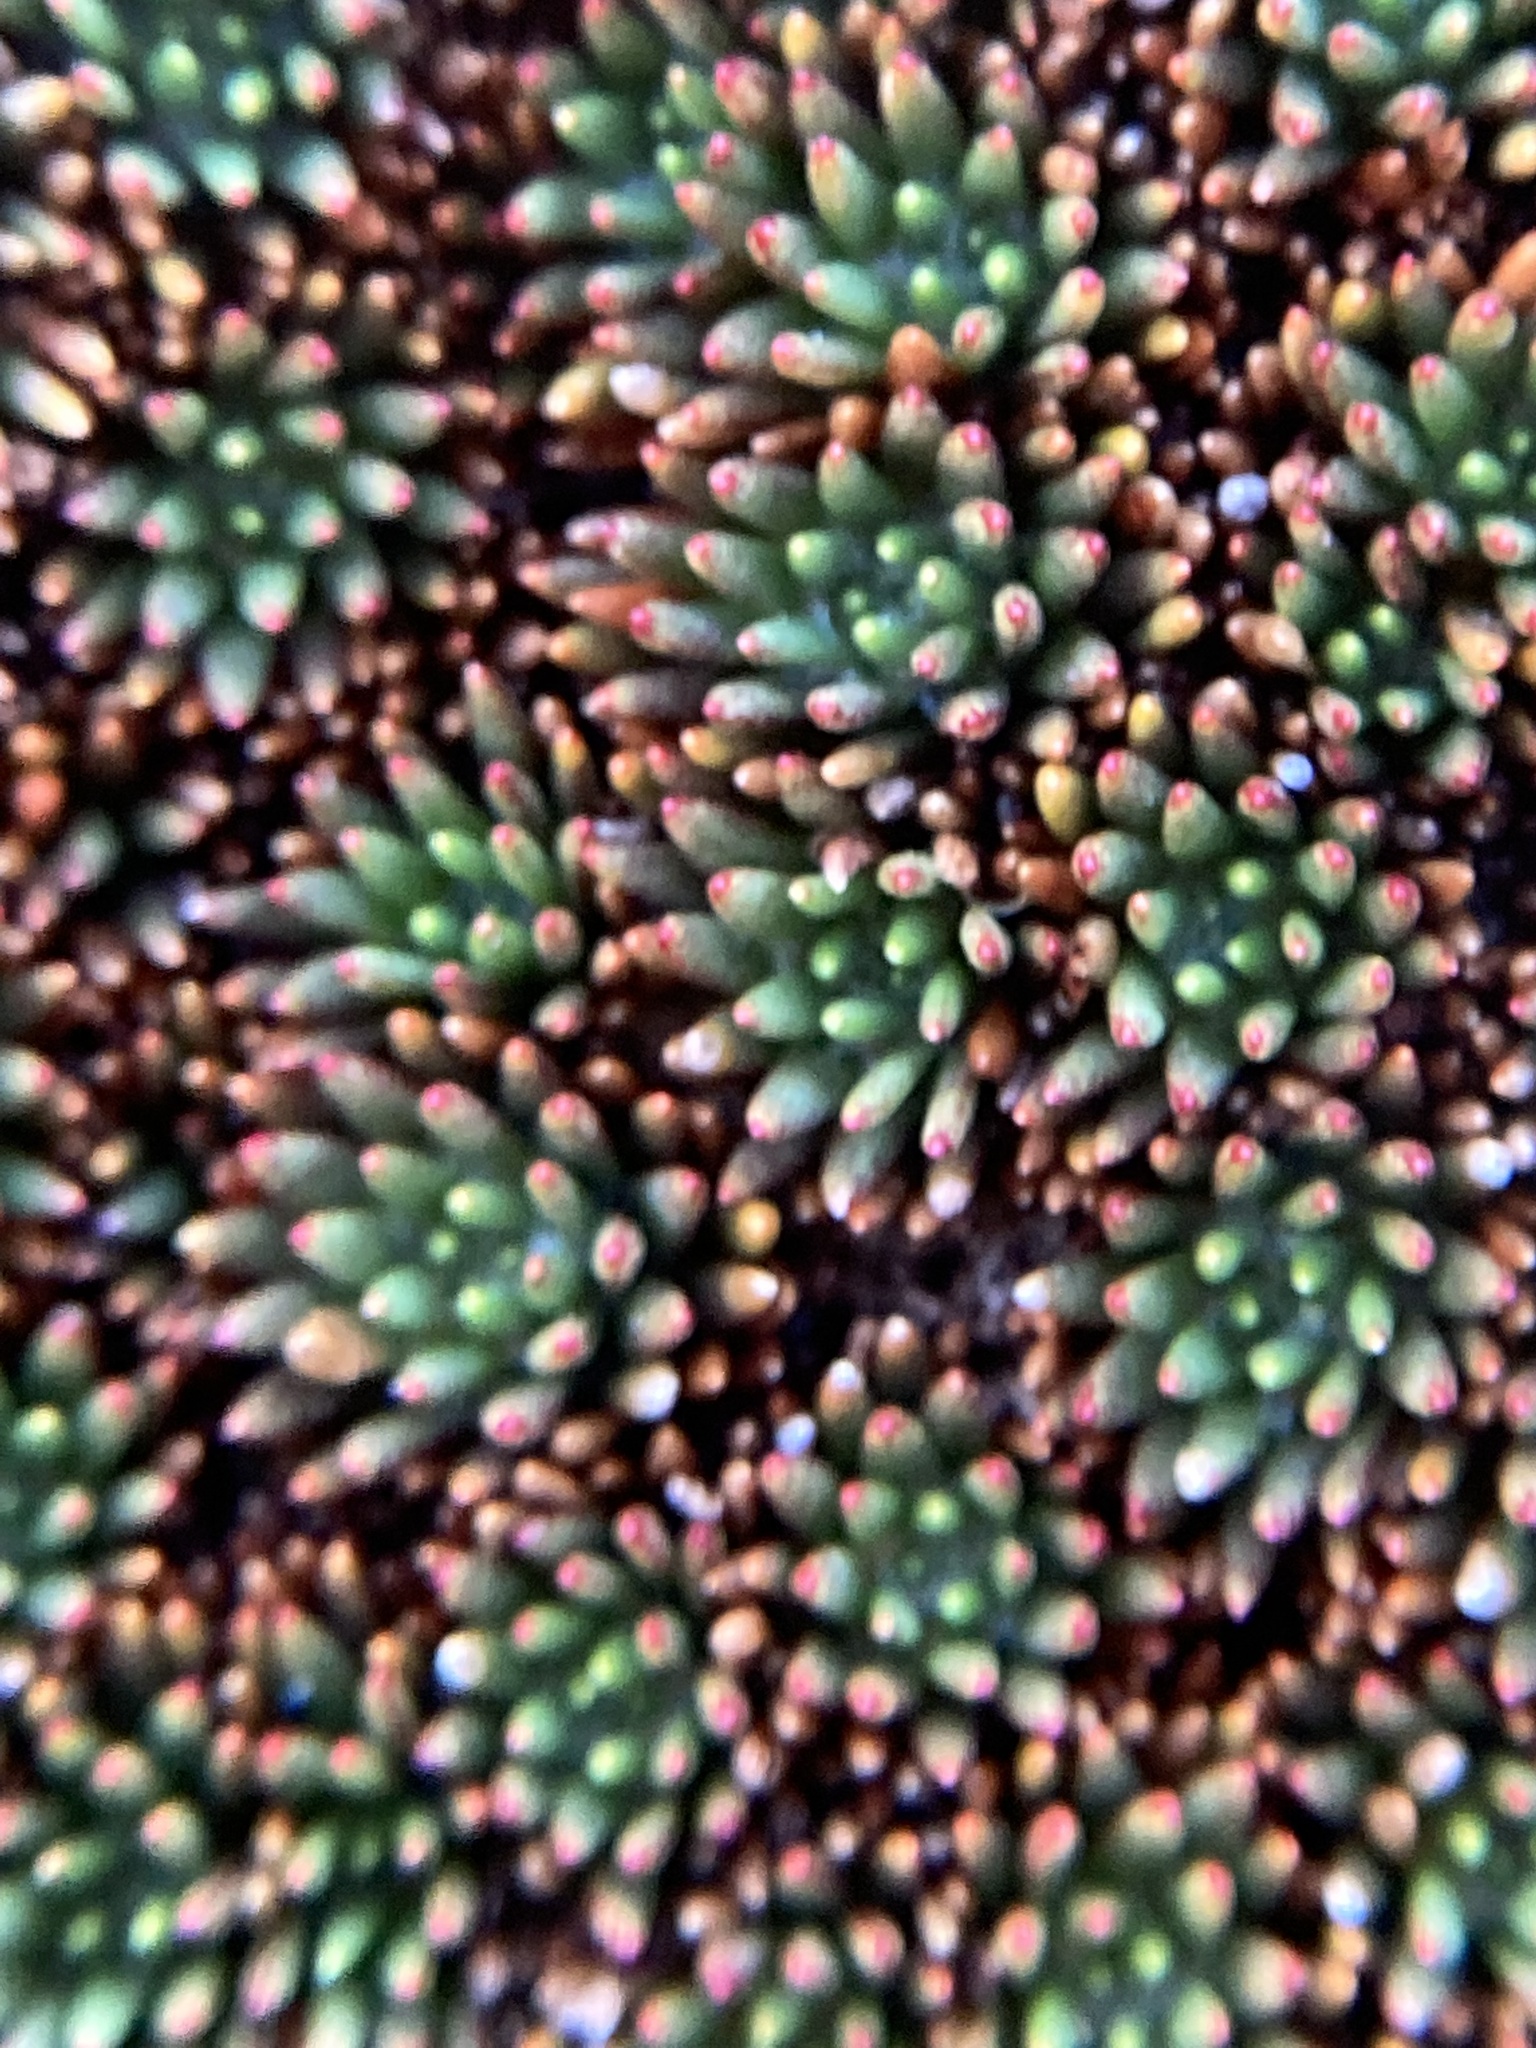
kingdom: Plantae
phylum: Tracheophyta
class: Magnoliopsida
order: Asterales
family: Stylidiaceae
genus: Donatia
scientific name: Donatia novae-zelandiae
